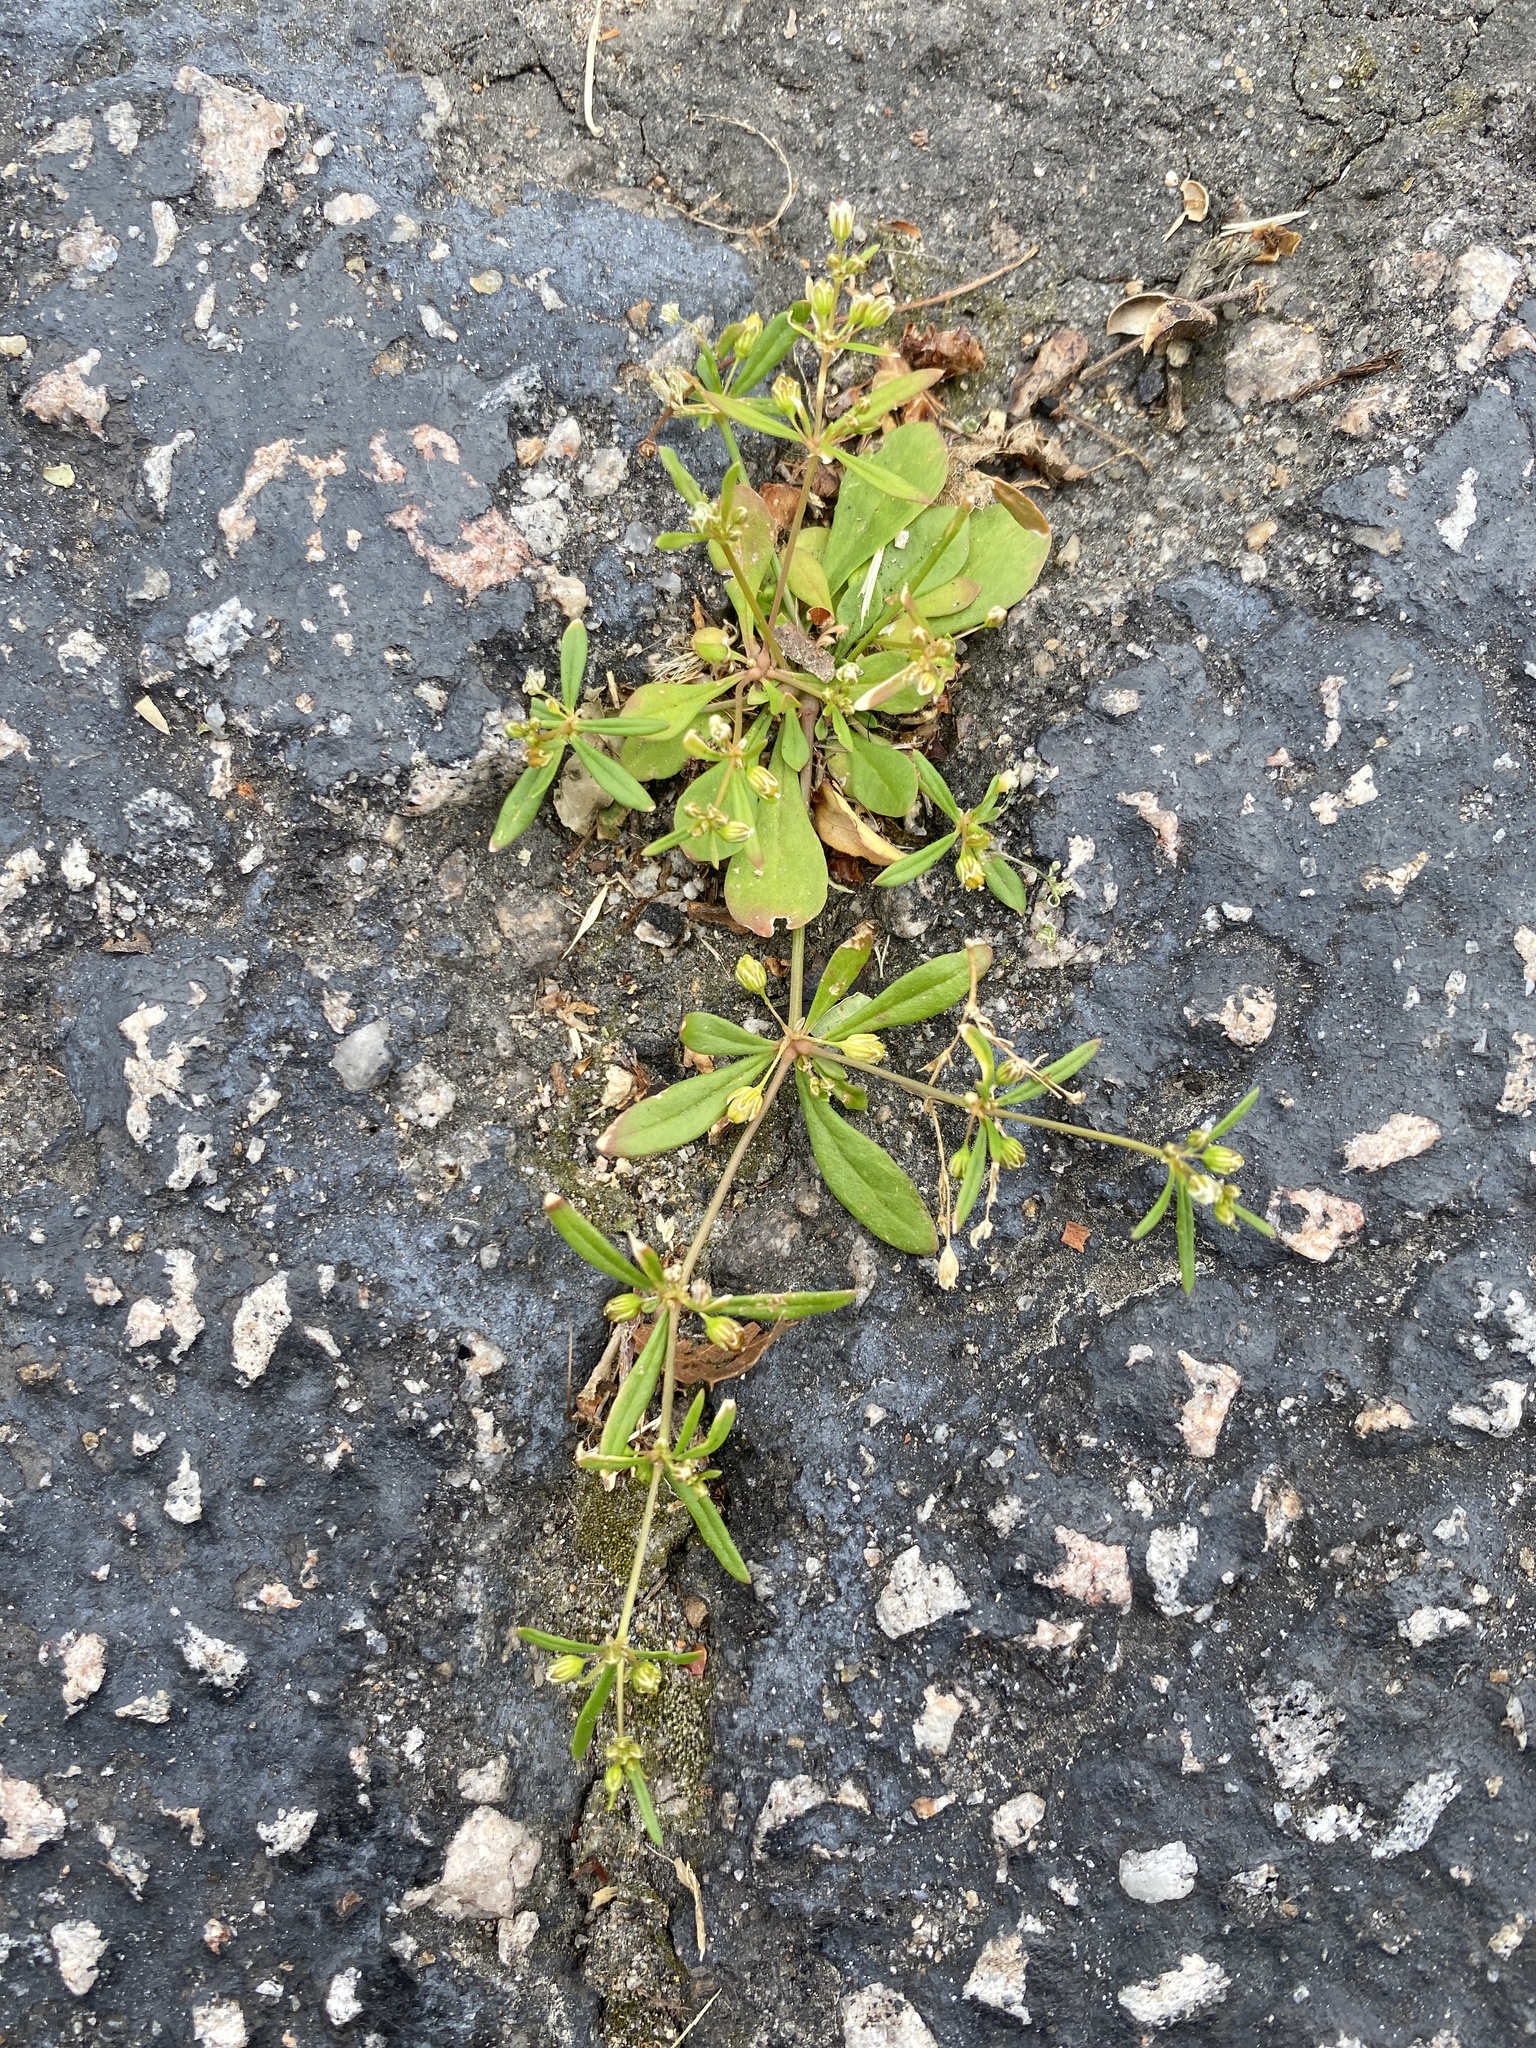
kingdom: Plantae
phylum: Tracheophyta
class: Magnoliopsida
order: Caryophyllales
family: Molluginaceae
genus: Mollugo
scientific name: Mollugo verticillata
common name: Green carpetweed
